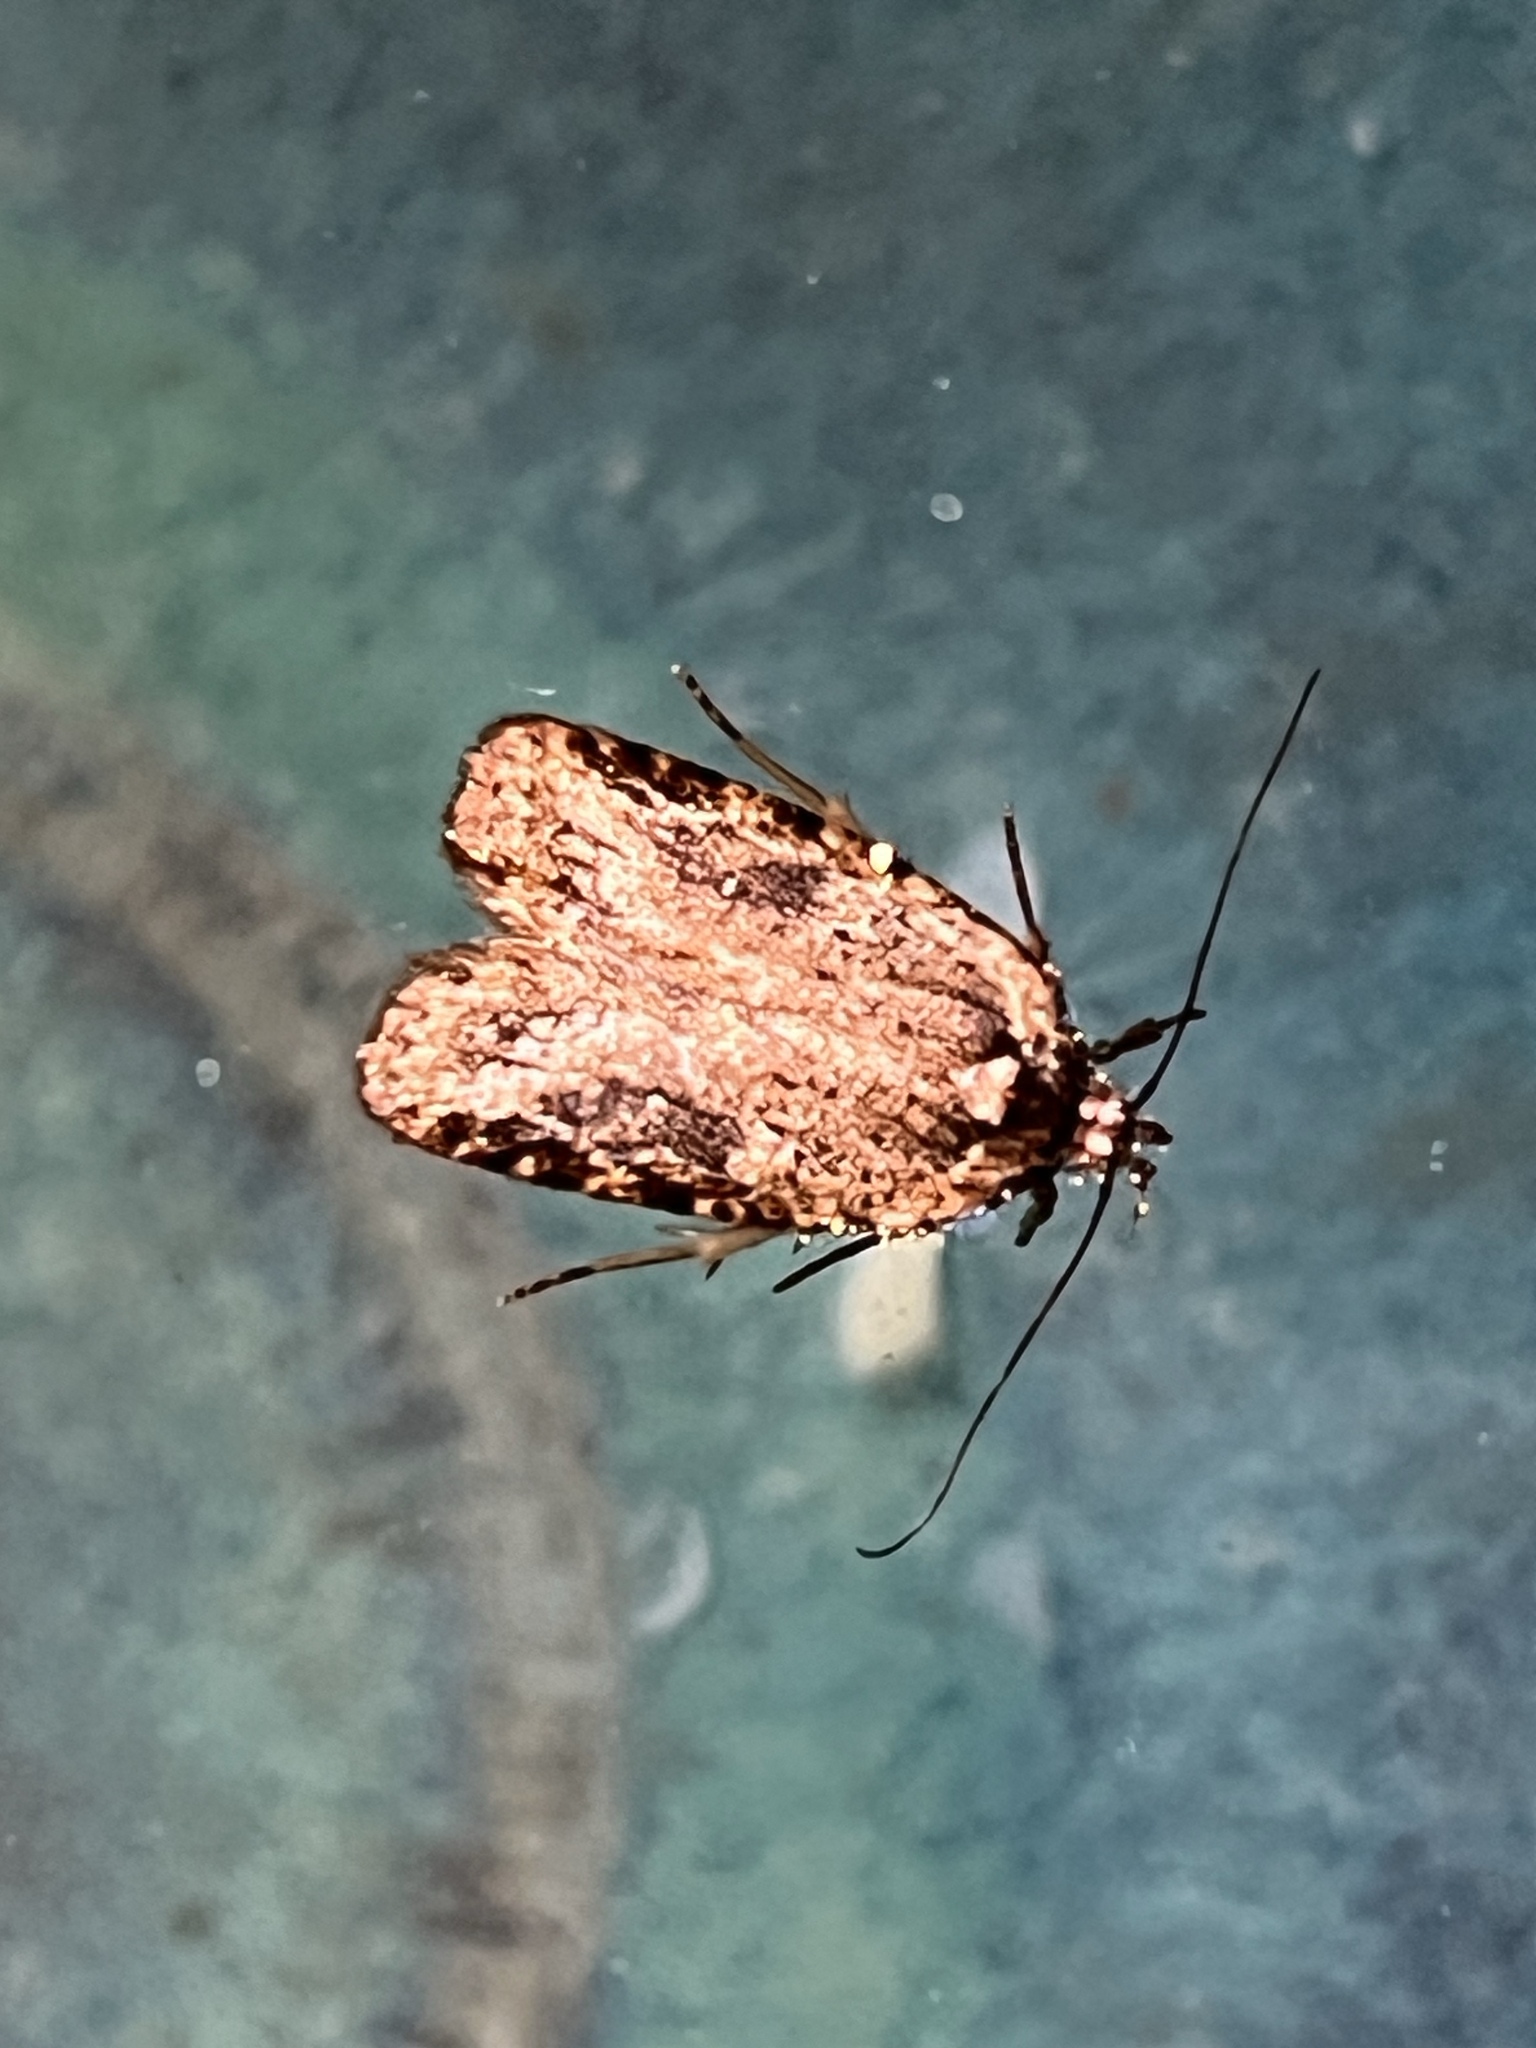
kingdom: Animalia
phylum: Arthropoda
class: Insecta
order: Lepidoptera
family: Depressariidae
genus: Agonopterix
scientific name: Agonopterix pulvipennella
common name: Goldenrod leafffolder
